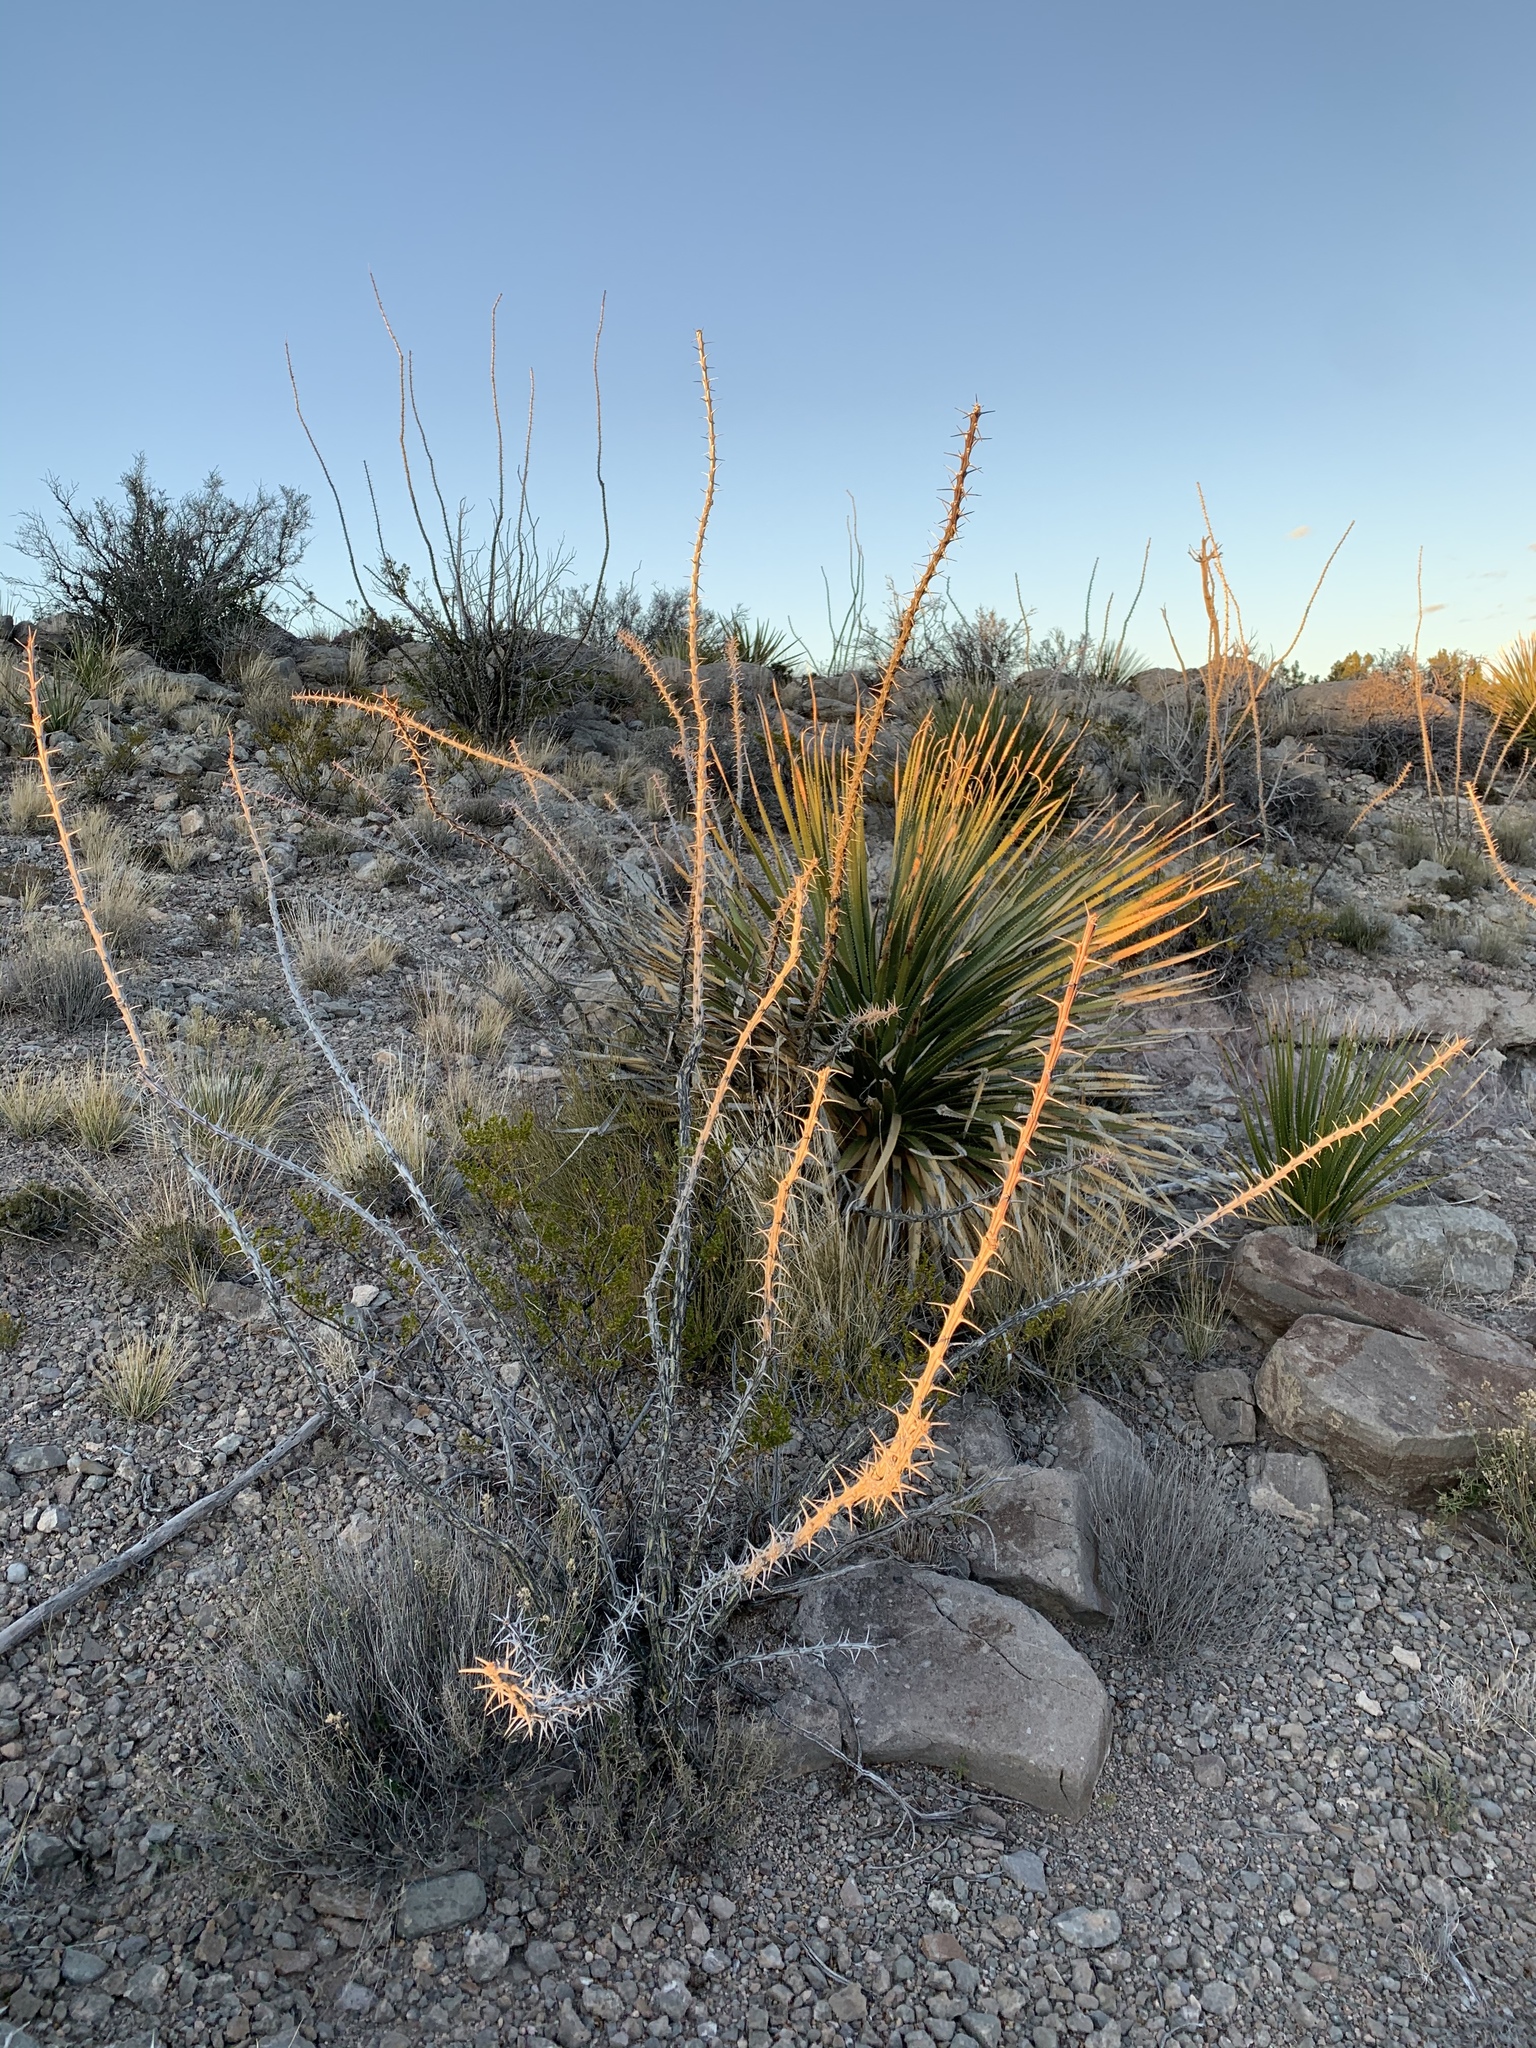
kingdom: Plantae
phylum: Tracheophyta
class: Magnoliopsida
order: Ericales
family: Fouquieriaceae
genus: Fouquieria
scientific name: Fouquieria splendens
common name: Vine-cactus
